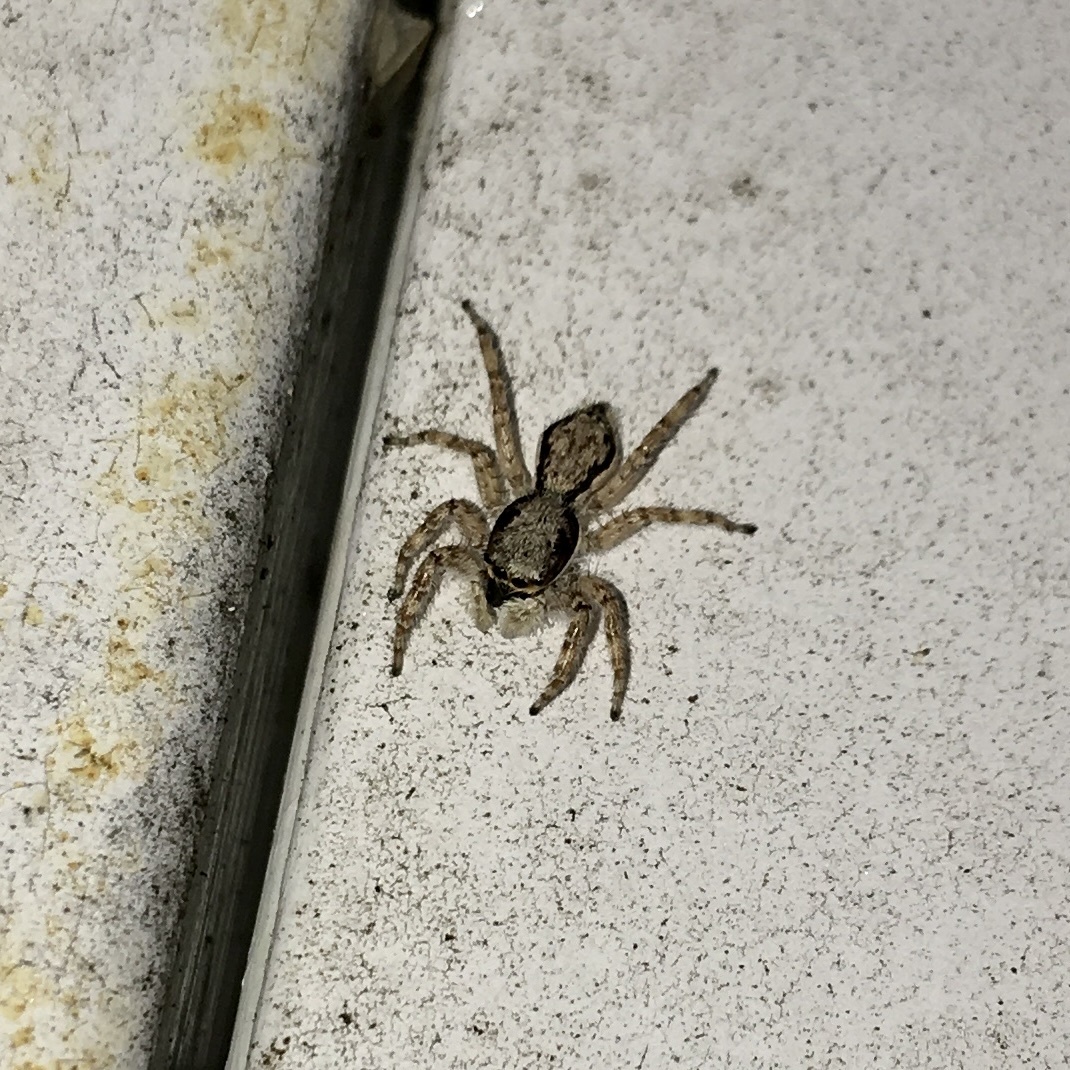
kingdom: Animalia
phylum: Arthropoda
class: Arachnida
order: Araneae
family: Salticidae
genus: Menemerus
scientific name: Menemerus bivittatus
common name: Gray wall jumper
